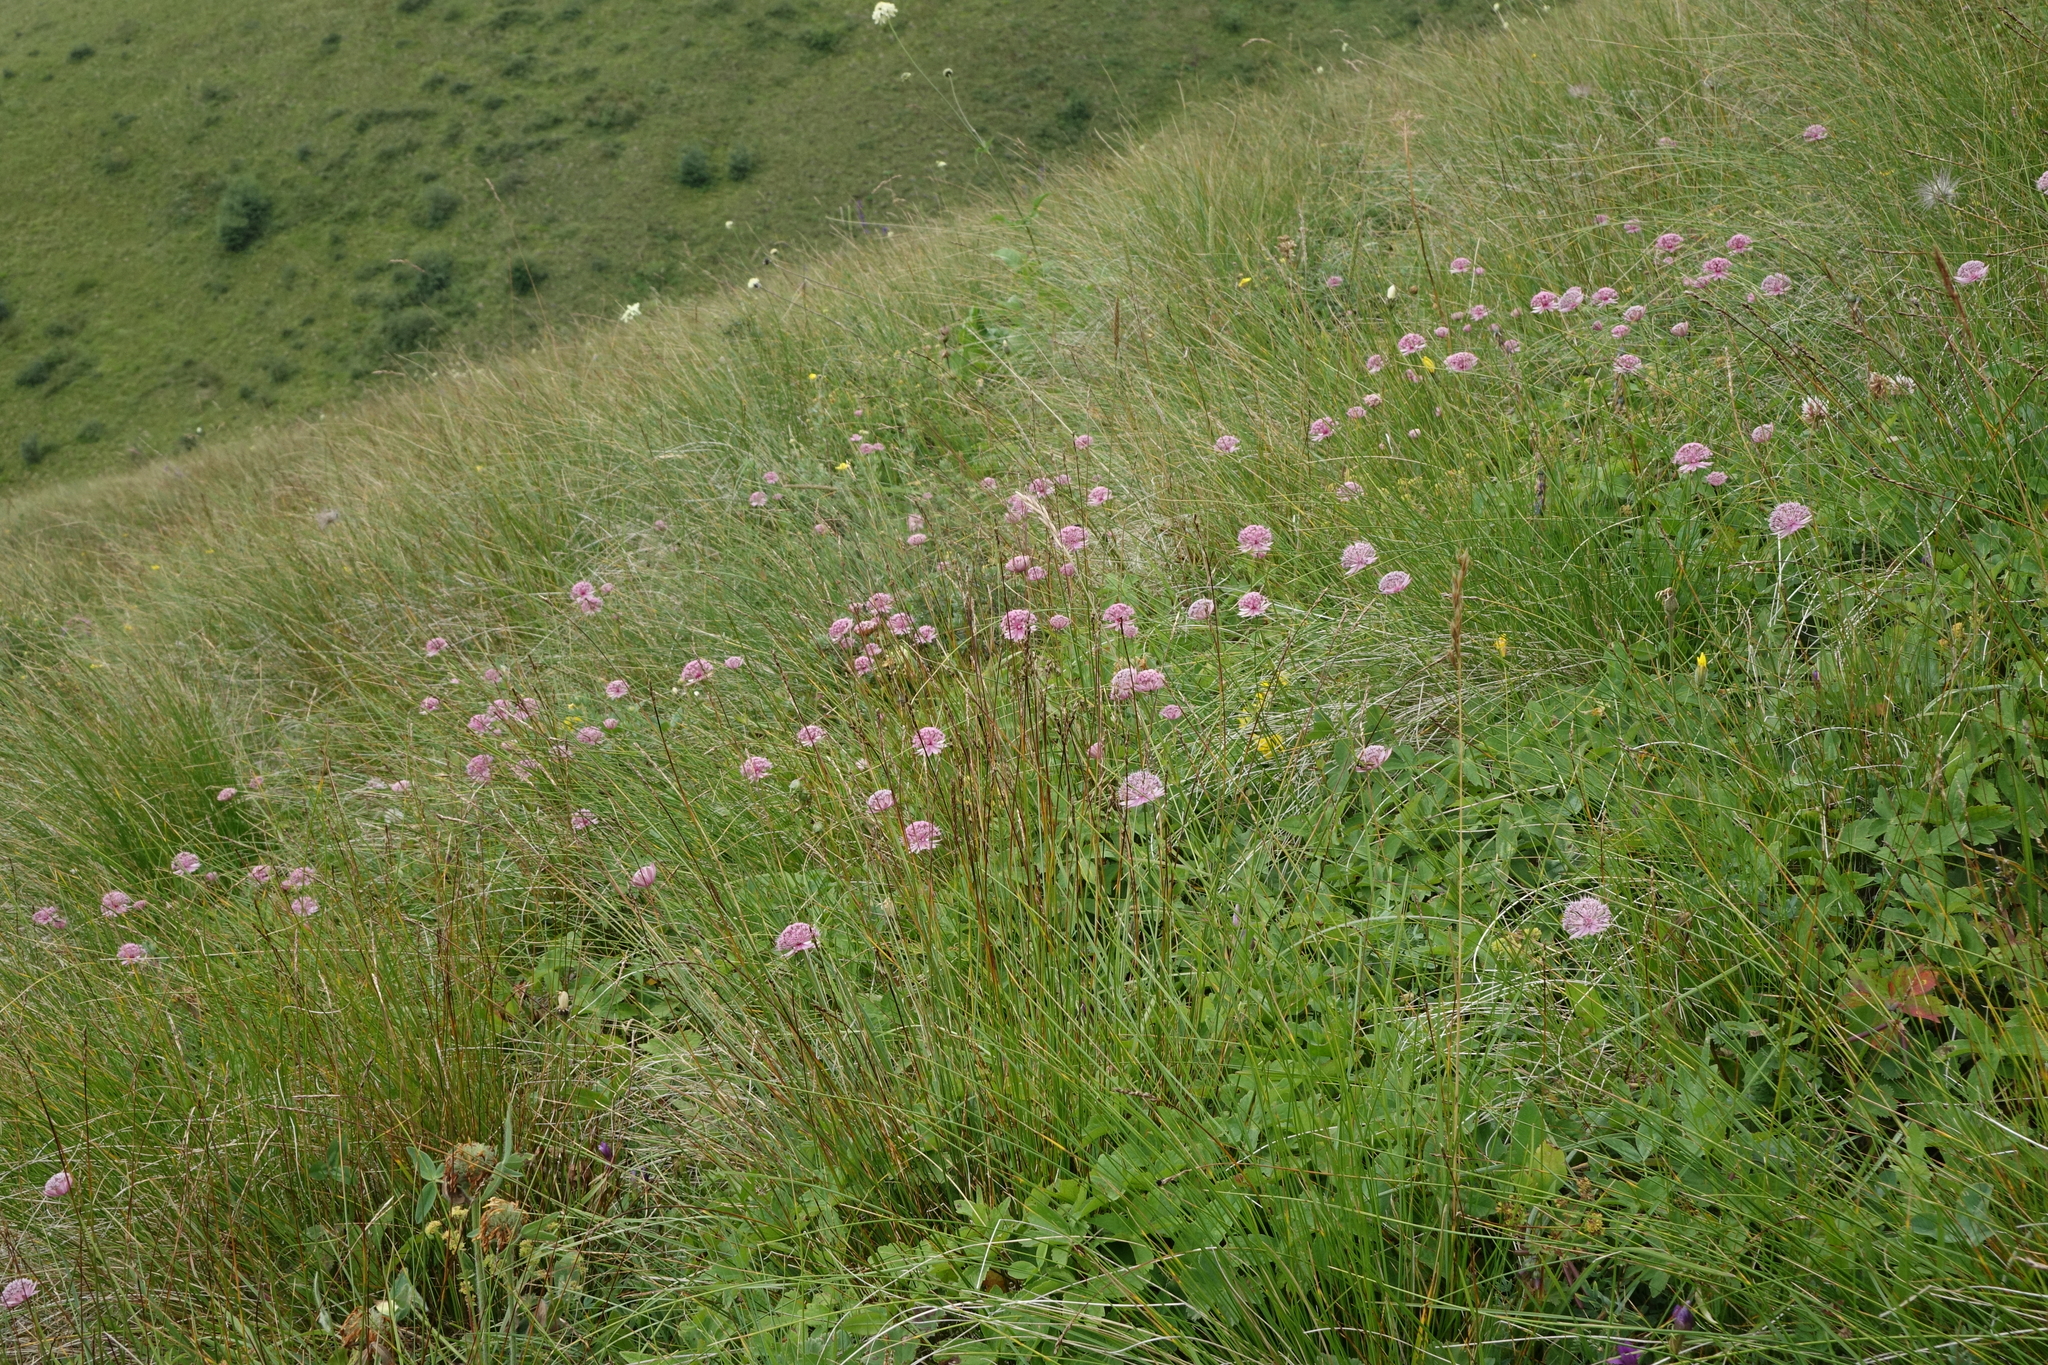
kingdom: Plantae
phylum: Tracheophyta
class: Magnoliopsida
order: Apiales
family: Apiaceae
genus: Astrantia
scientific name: Astrantia trifida
